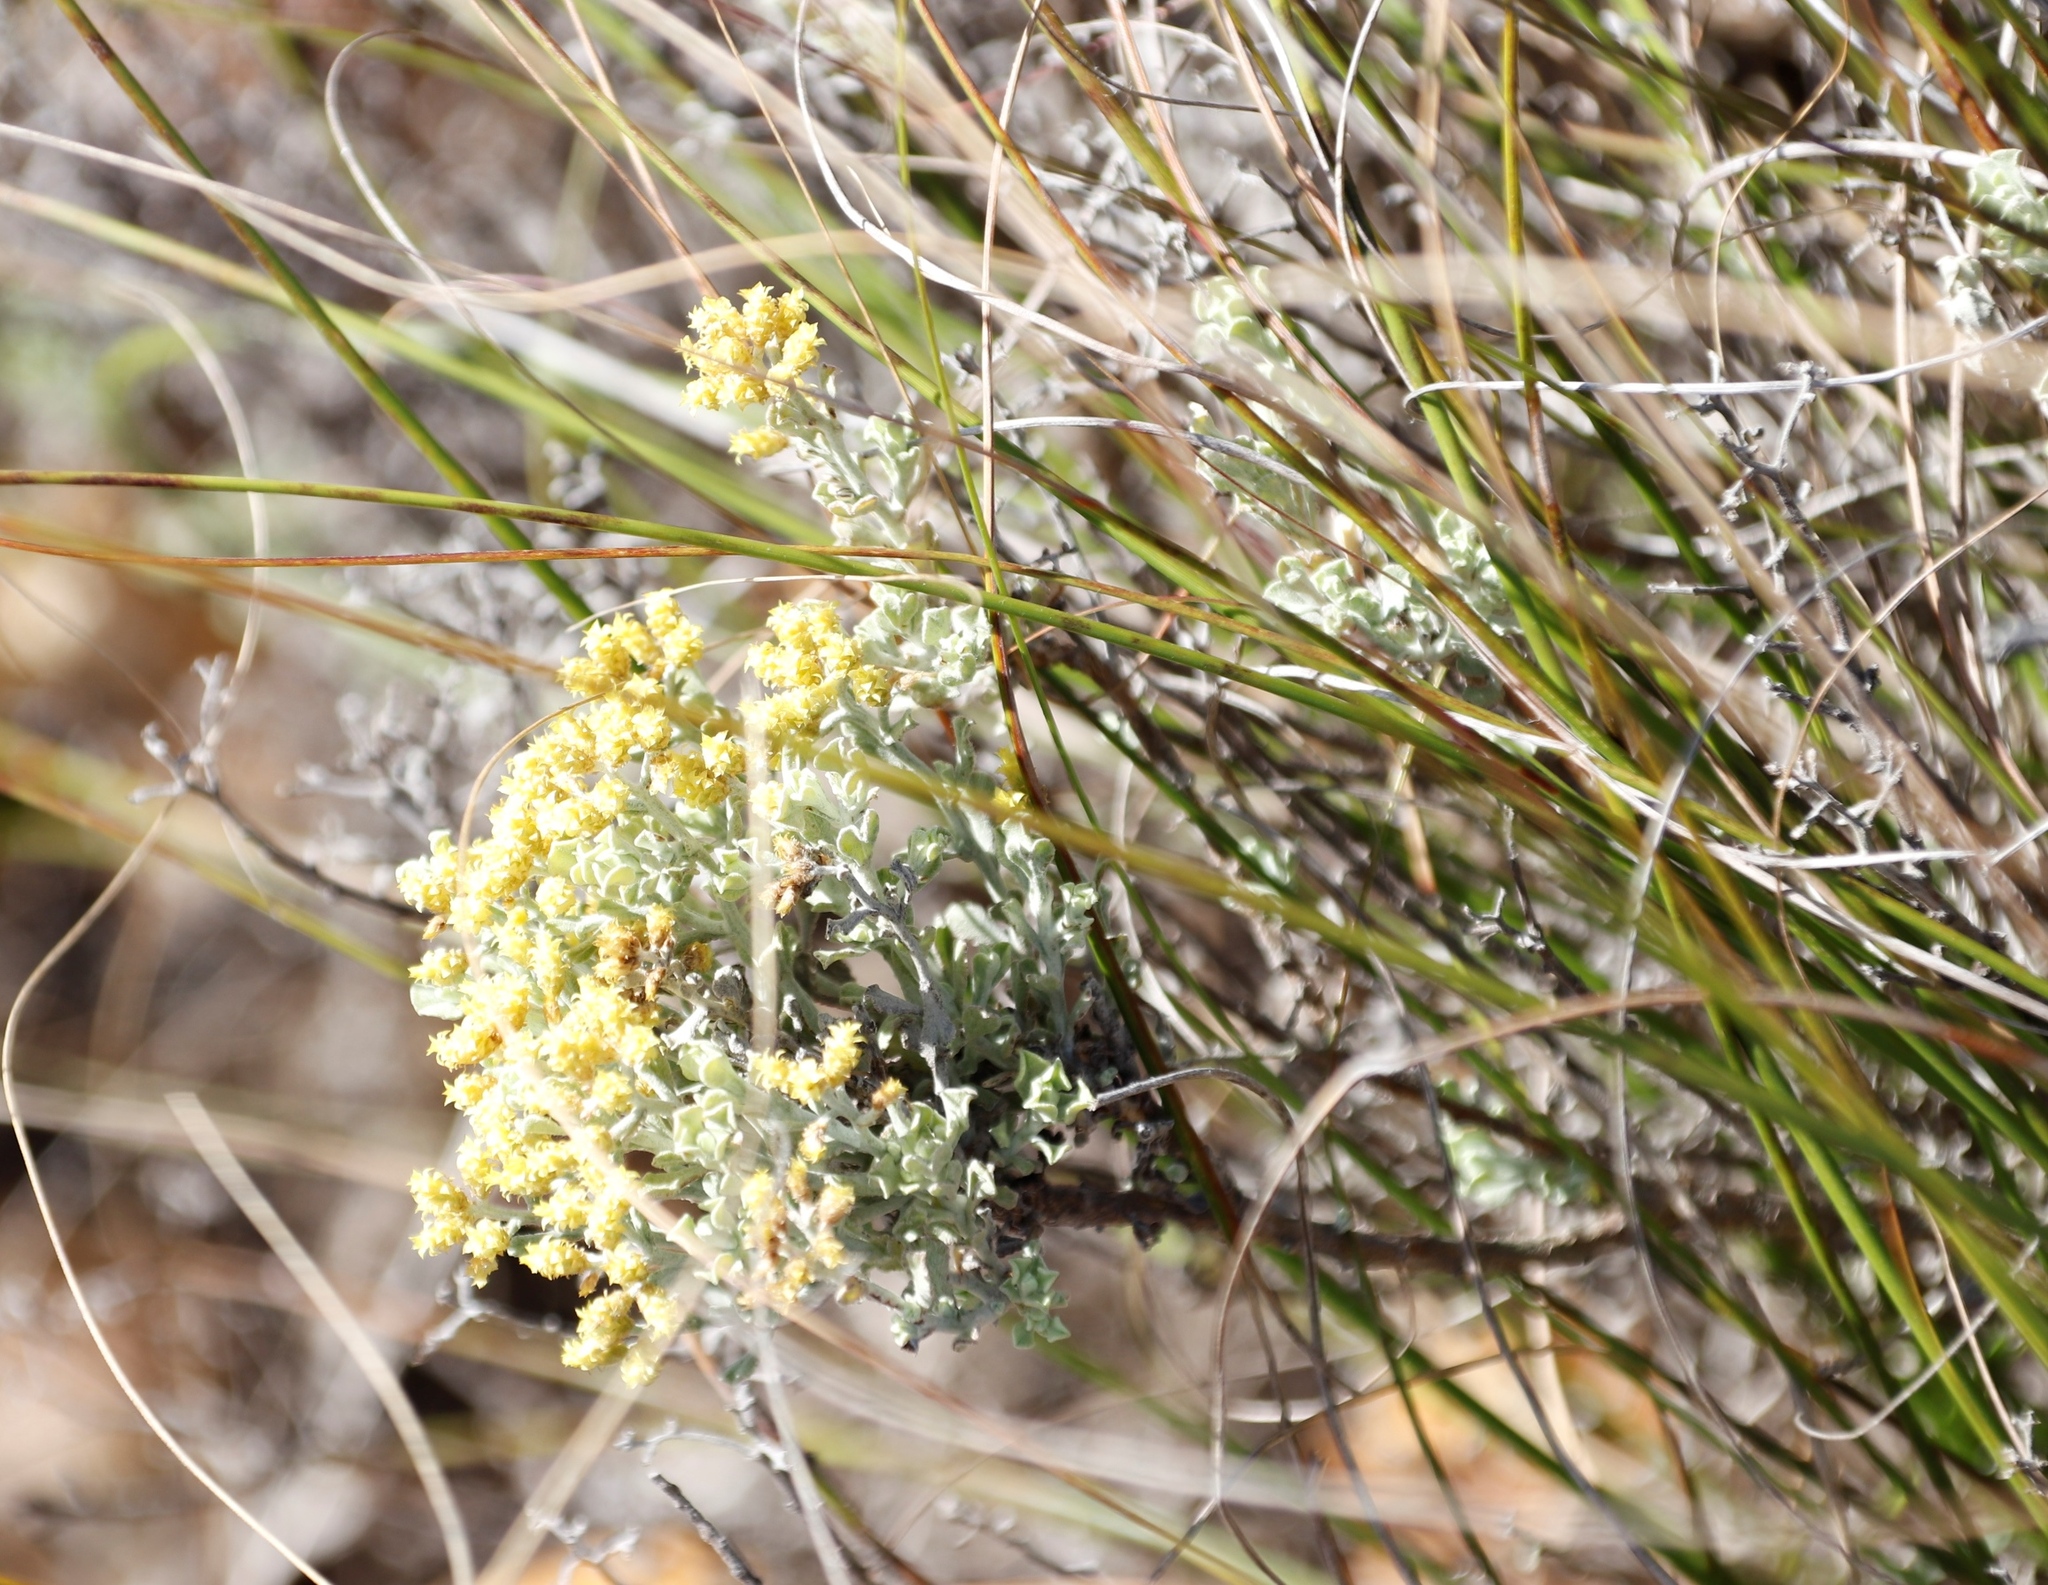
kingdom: Plantae
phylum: Tracheophyta
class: Magnoliopsida
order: Asterales
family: Asteraceae
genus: Helichrysum
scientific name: Helichrysum excisum
